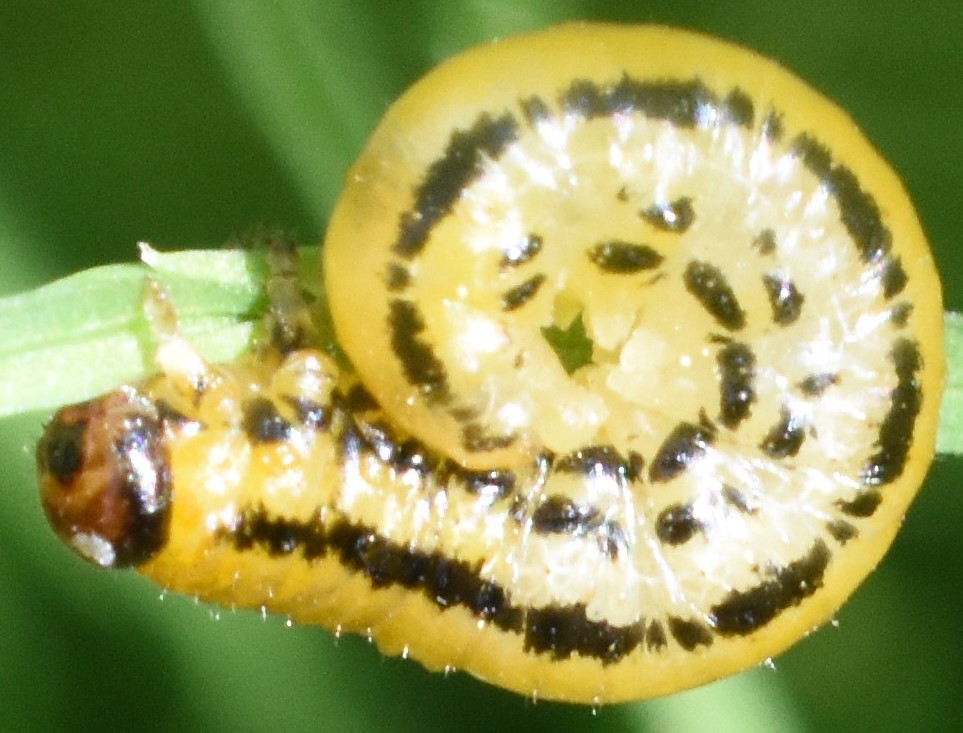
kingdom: Animalia
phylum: Arthropoda
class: Insecta
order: Hymenoptera
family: Tenthredinidae
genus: Hemichroa
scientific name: Hemichroa crocea
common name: Striped alder sawfly
